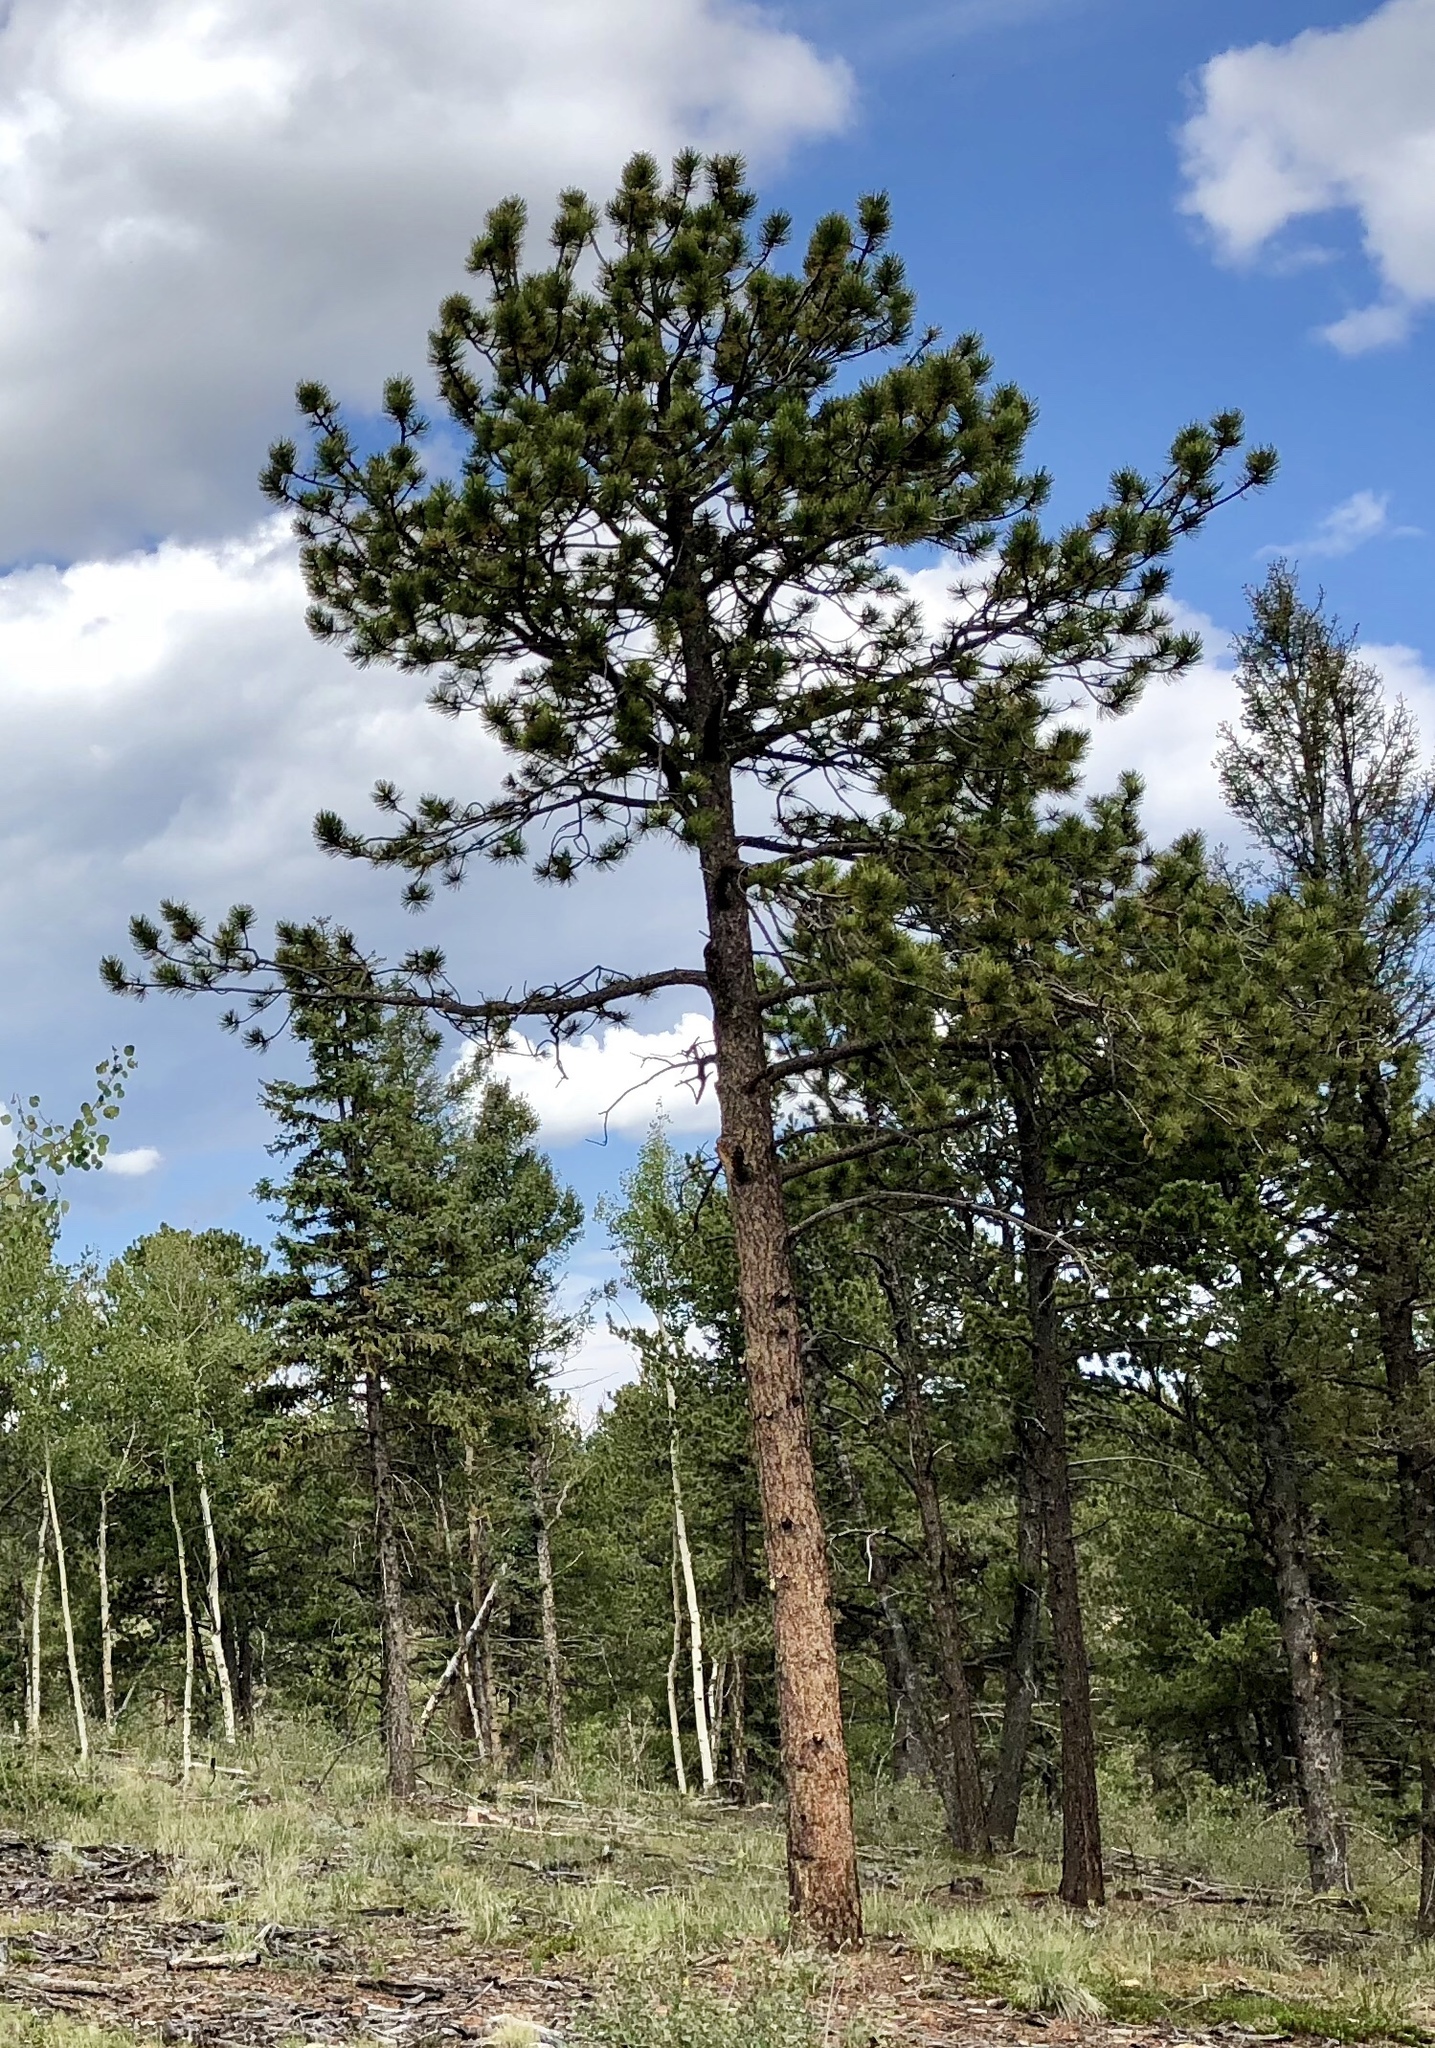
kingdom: Plantae
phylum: Tracheophyta
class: Pinopsida
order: Pinales
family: Pinaceae
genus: Pinus
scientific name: Pinus ponderosa
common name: Western yellow-pine
